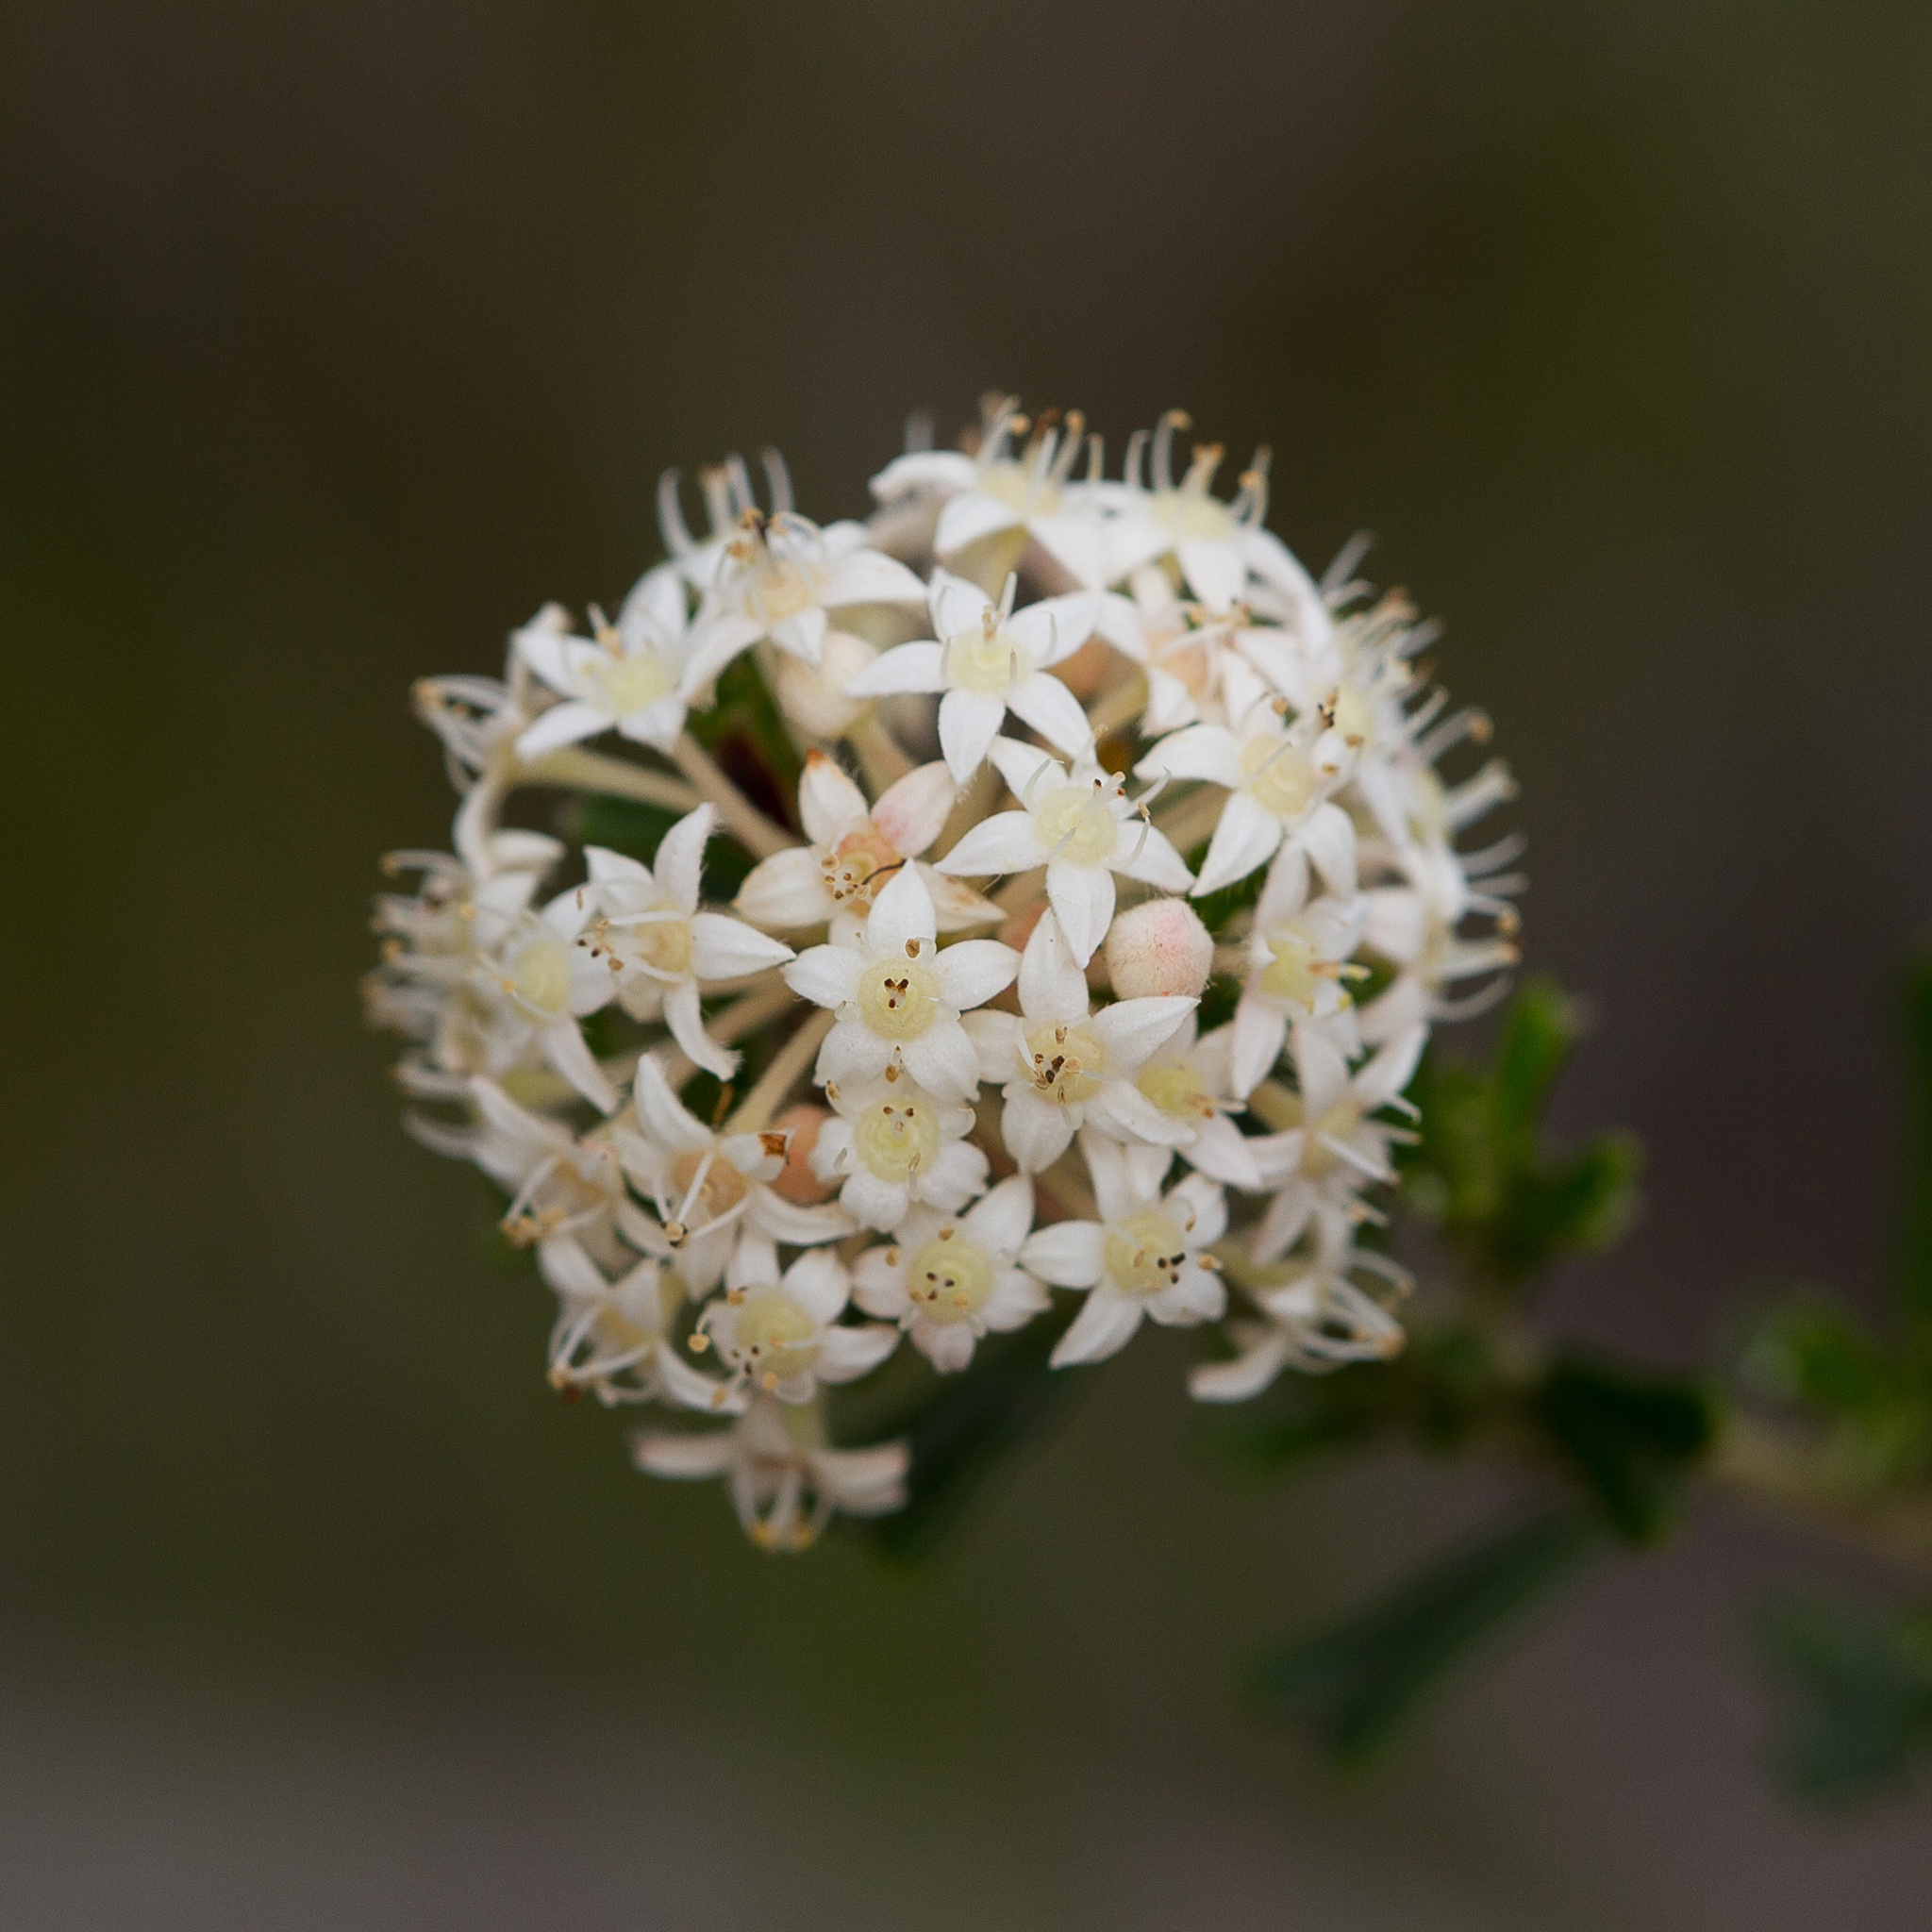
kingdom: Plantae
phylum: Tracheophyta
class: Magnoliopsida
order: Rosales
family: Rhamnaceae
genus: Pomaderris
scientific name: Pomaderris obcordata
